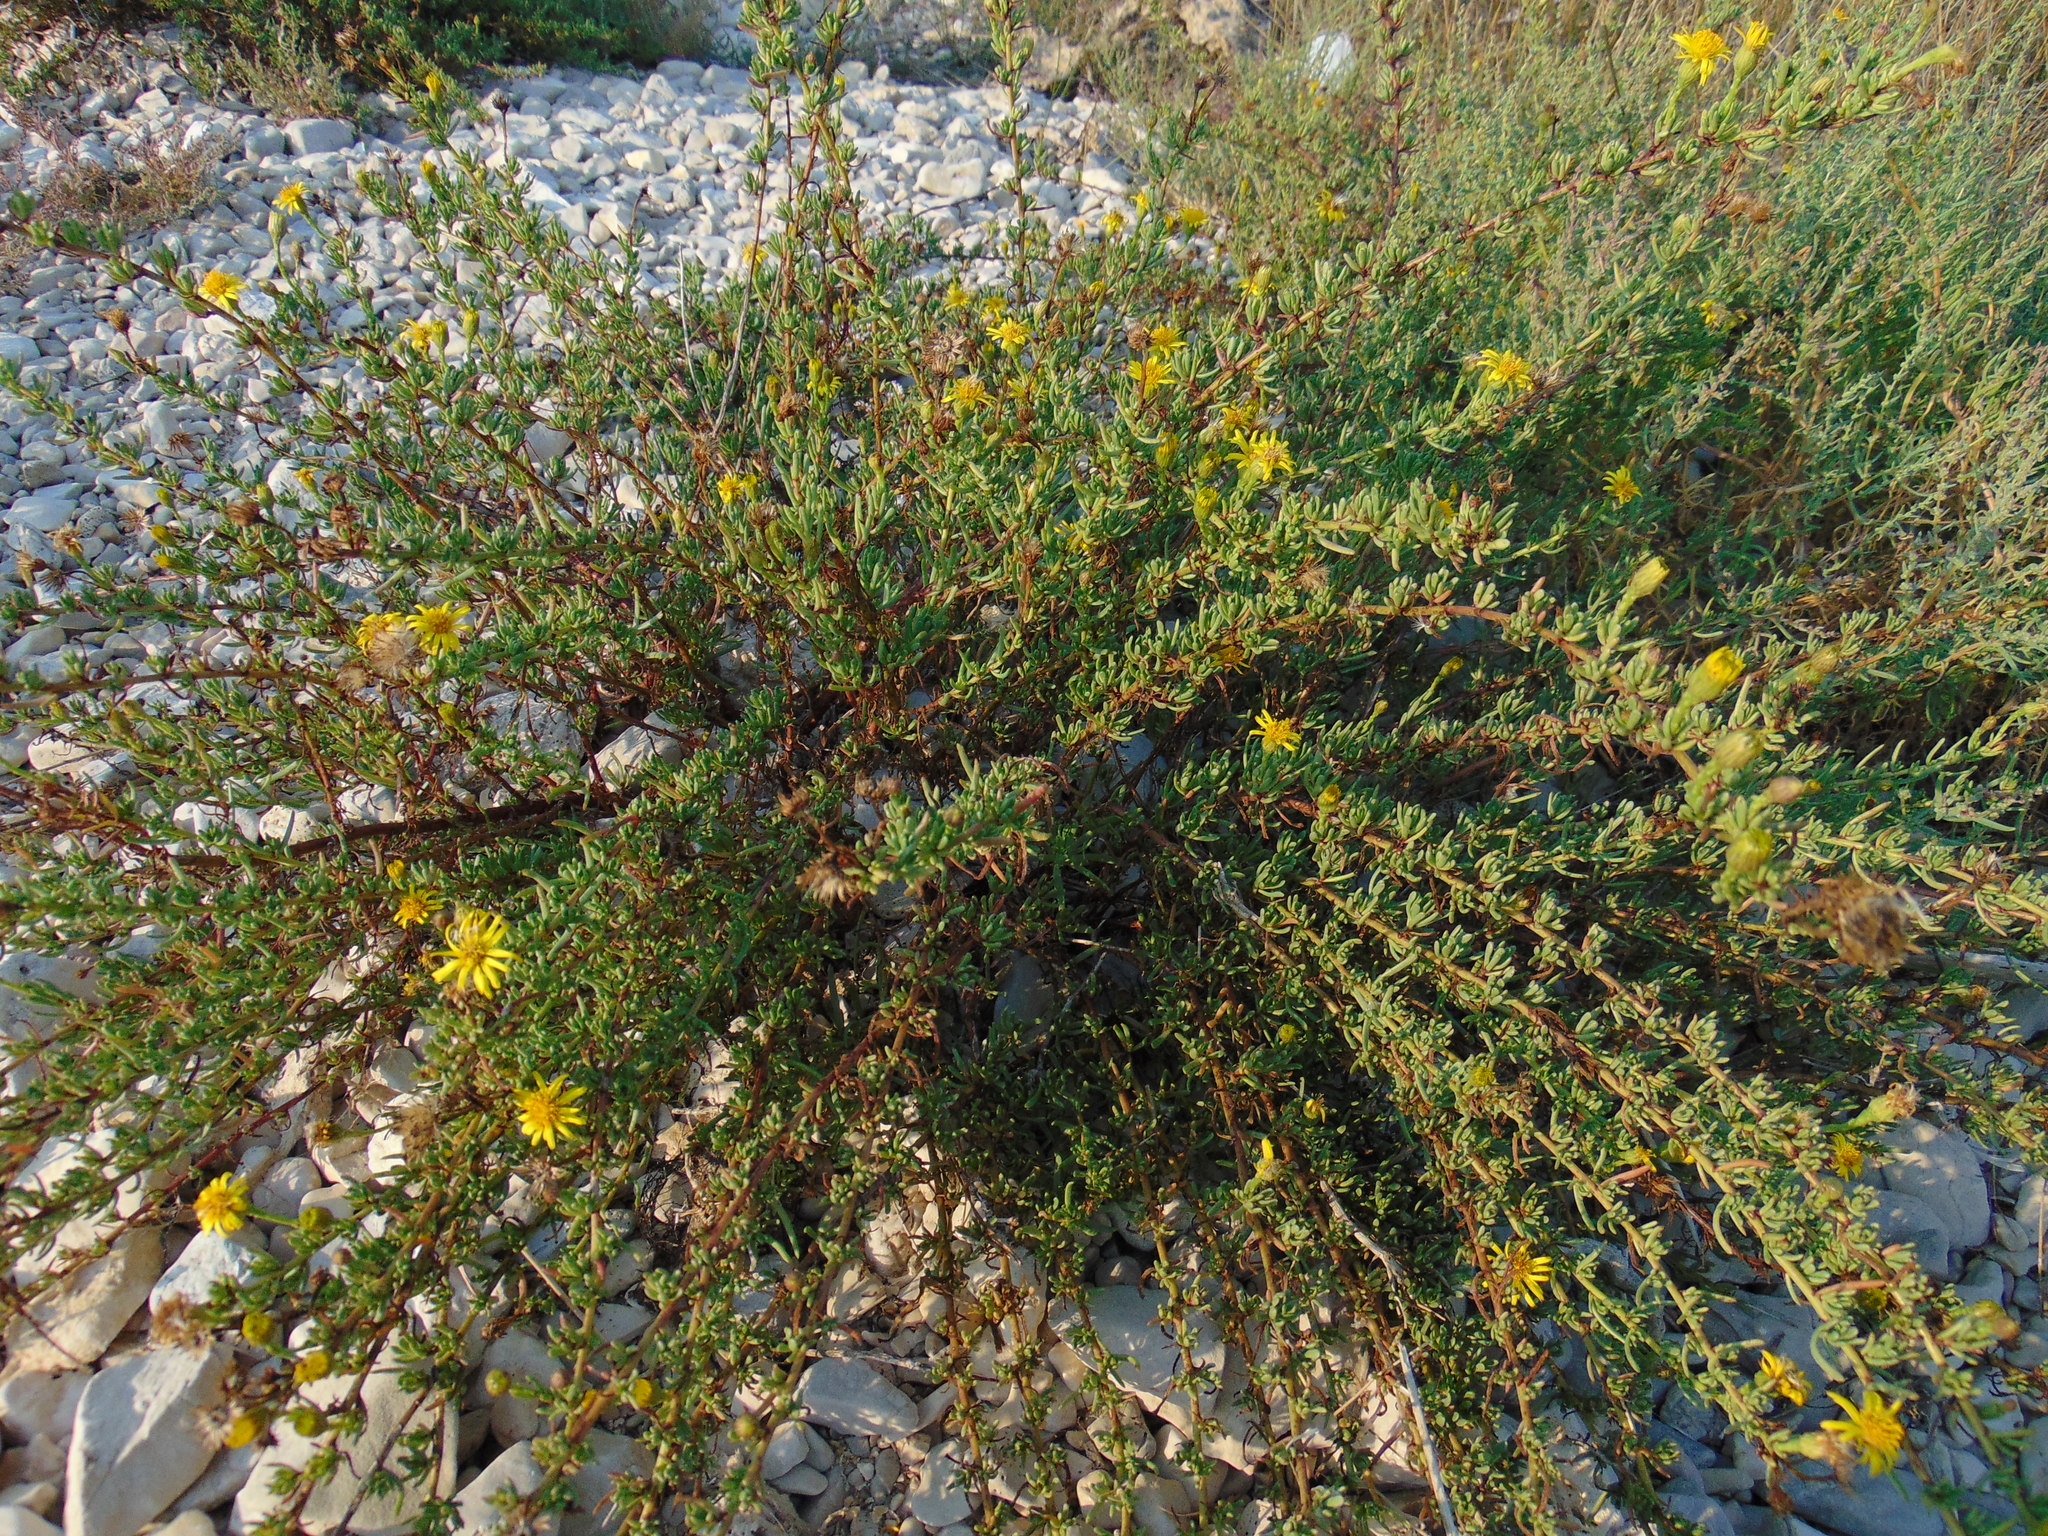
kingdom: Plantae
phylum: Tracheophyta
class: Magnoliopsida
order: Asterales
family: Asteraceae
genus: Limbarda
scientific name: Limbarda crithmoides
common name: Golden samphire
